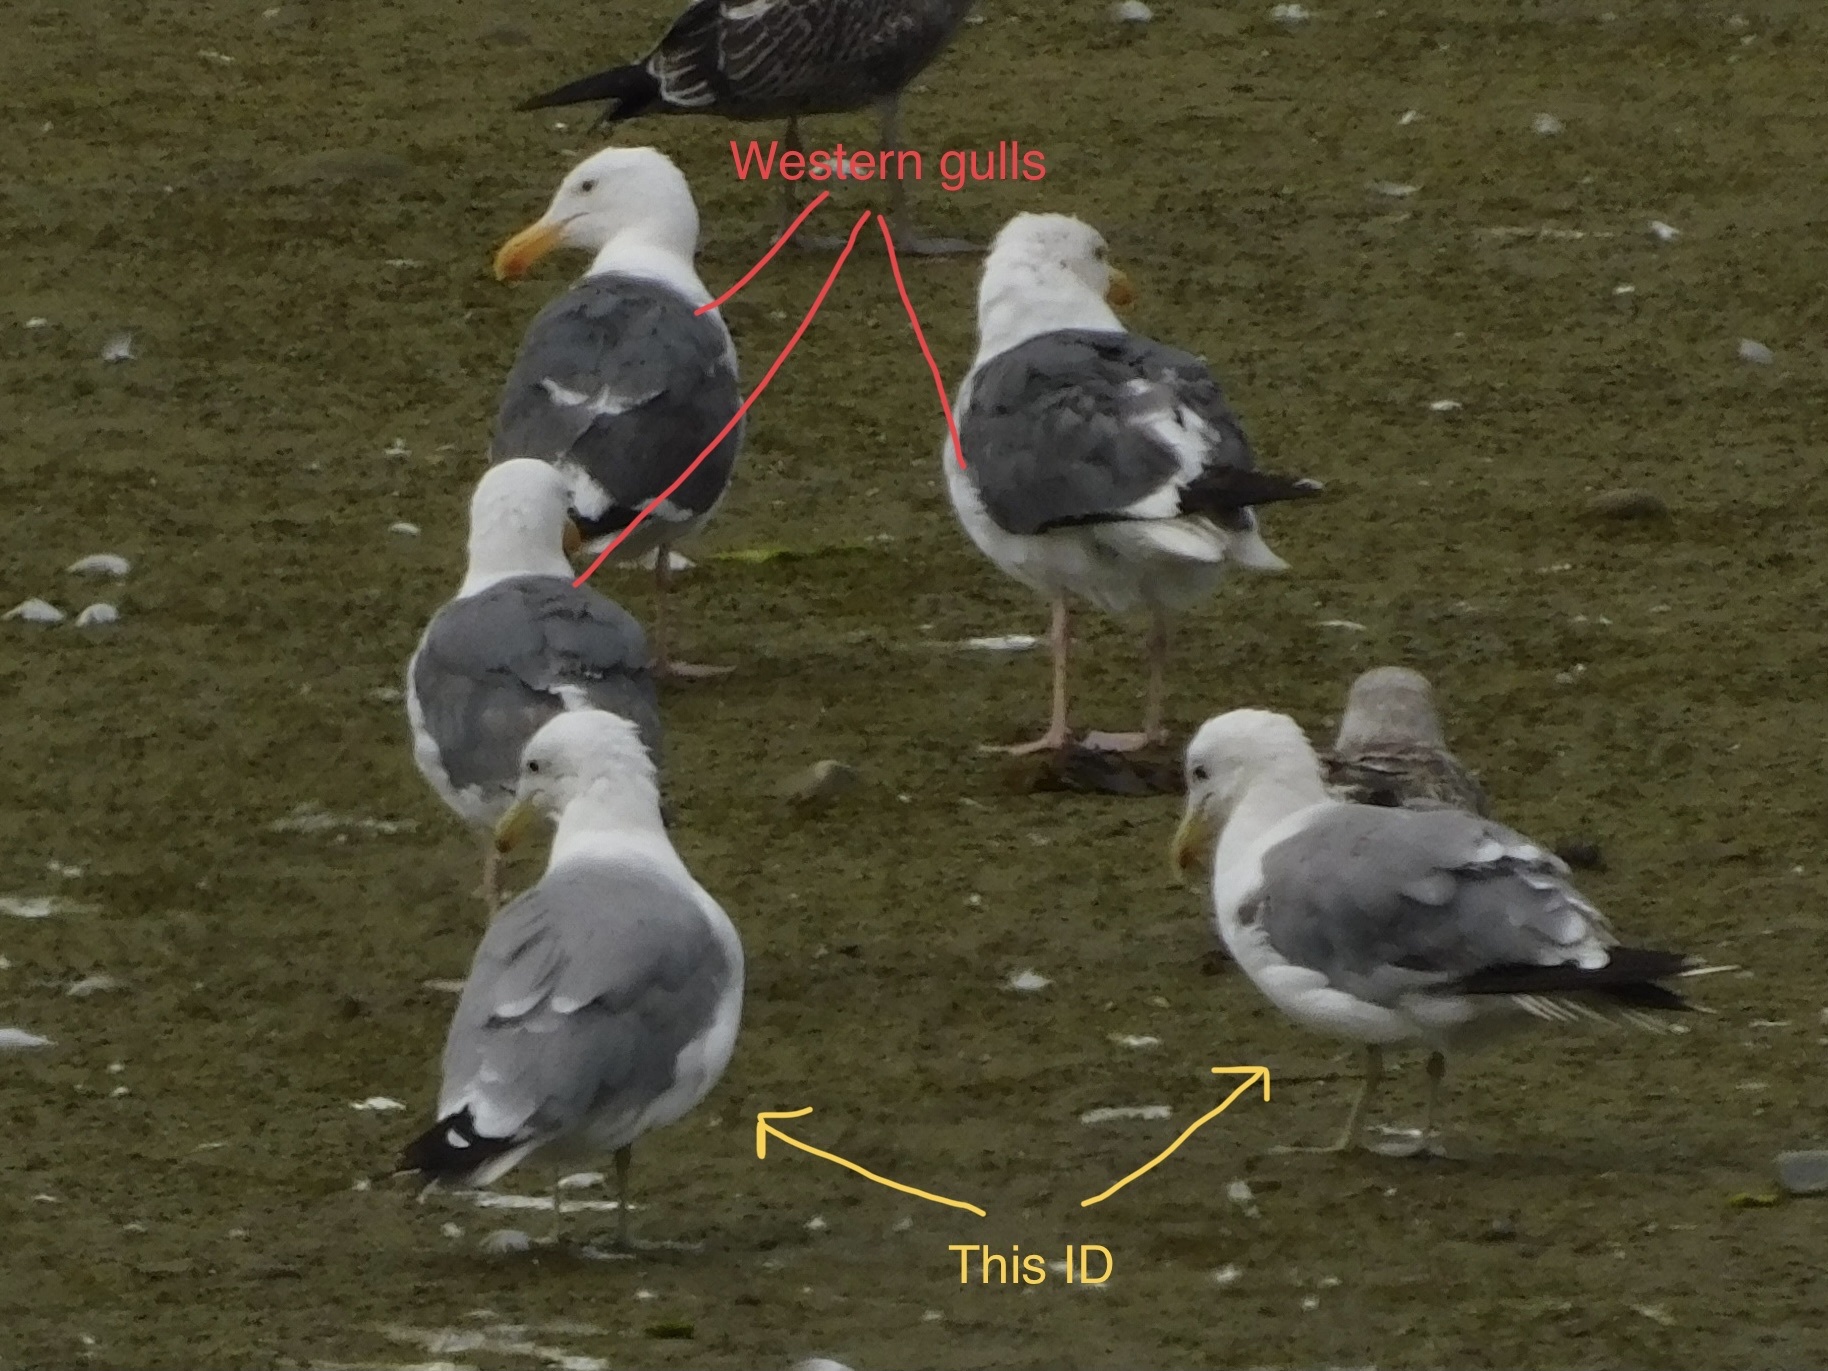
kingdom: Animalia
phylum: Chordata
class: Aves
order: Charadriiformes
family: Laridae
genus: Larus
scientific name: Larus californicus
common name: California gull
